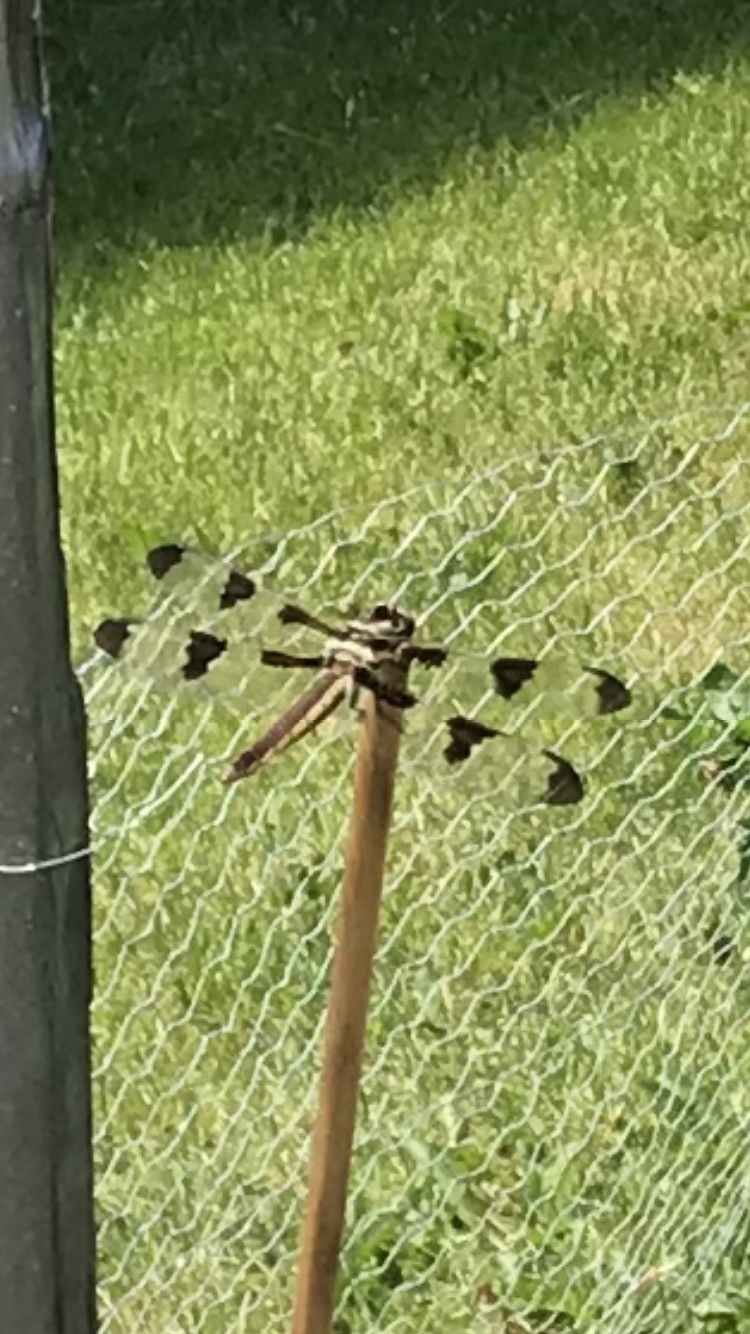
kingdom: Animalia
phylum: Arthropoda
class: Insecta
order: Odonata
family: Libellulidae
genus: Libellula
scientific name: Libellula pulchella
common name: Twelve-spotted skimmer
